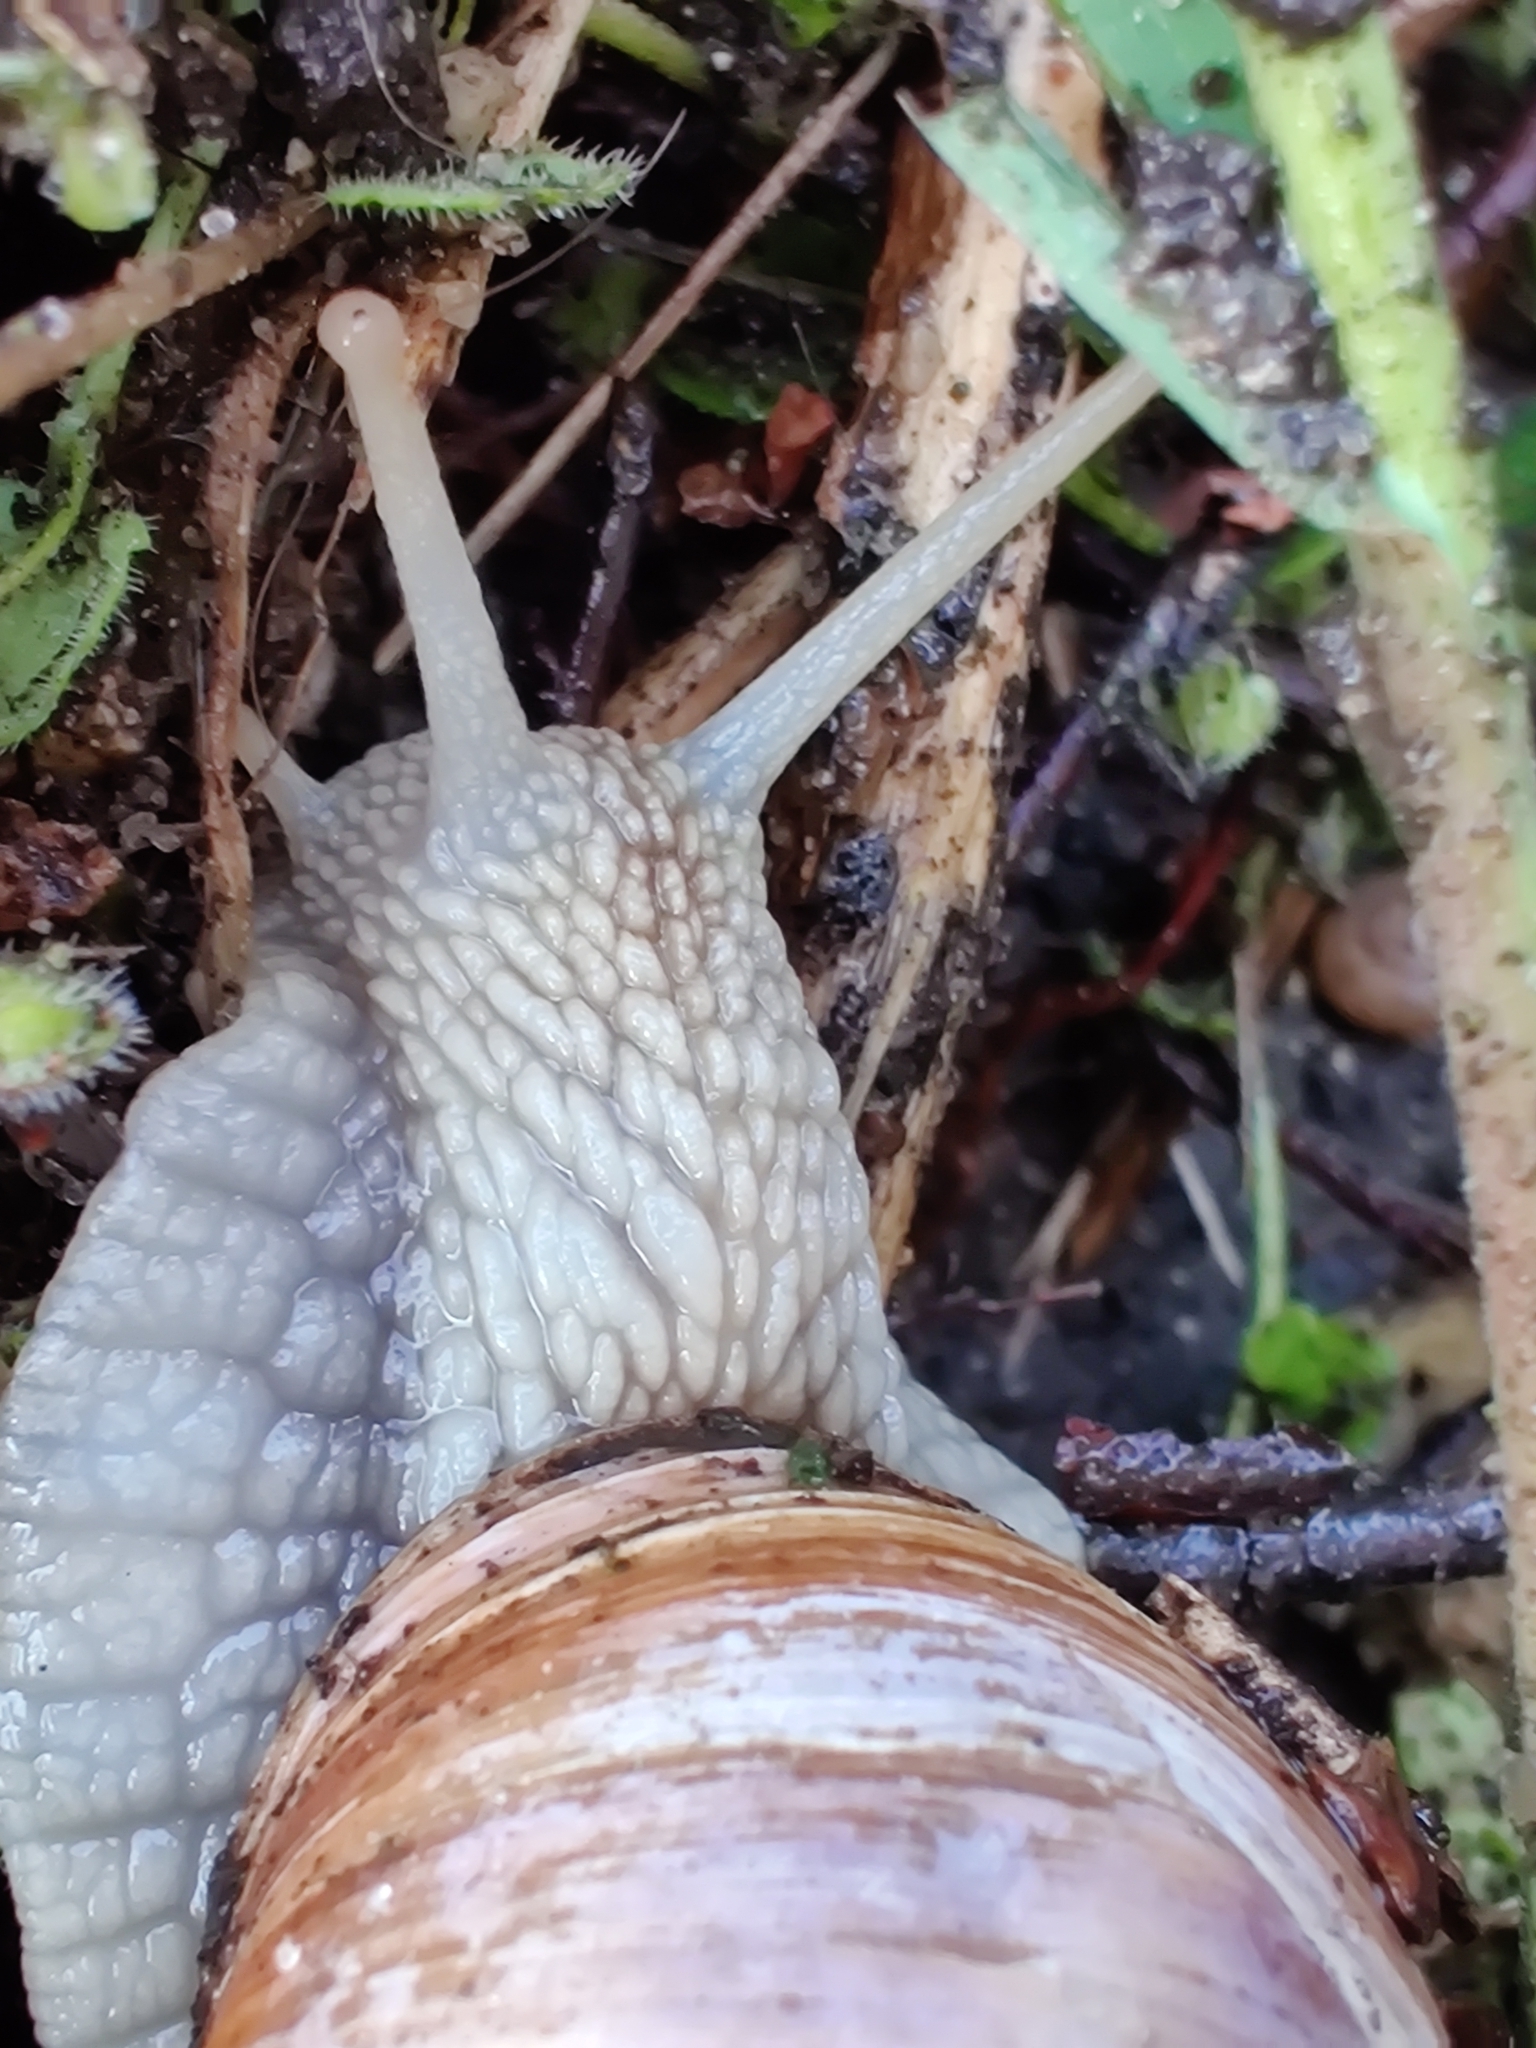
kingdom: Animalia
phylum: Mollusca
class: Gastropoda
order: Stylommatophora
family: Helicidae
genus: Helix
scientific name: Helix pomatia
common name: Roman snail
